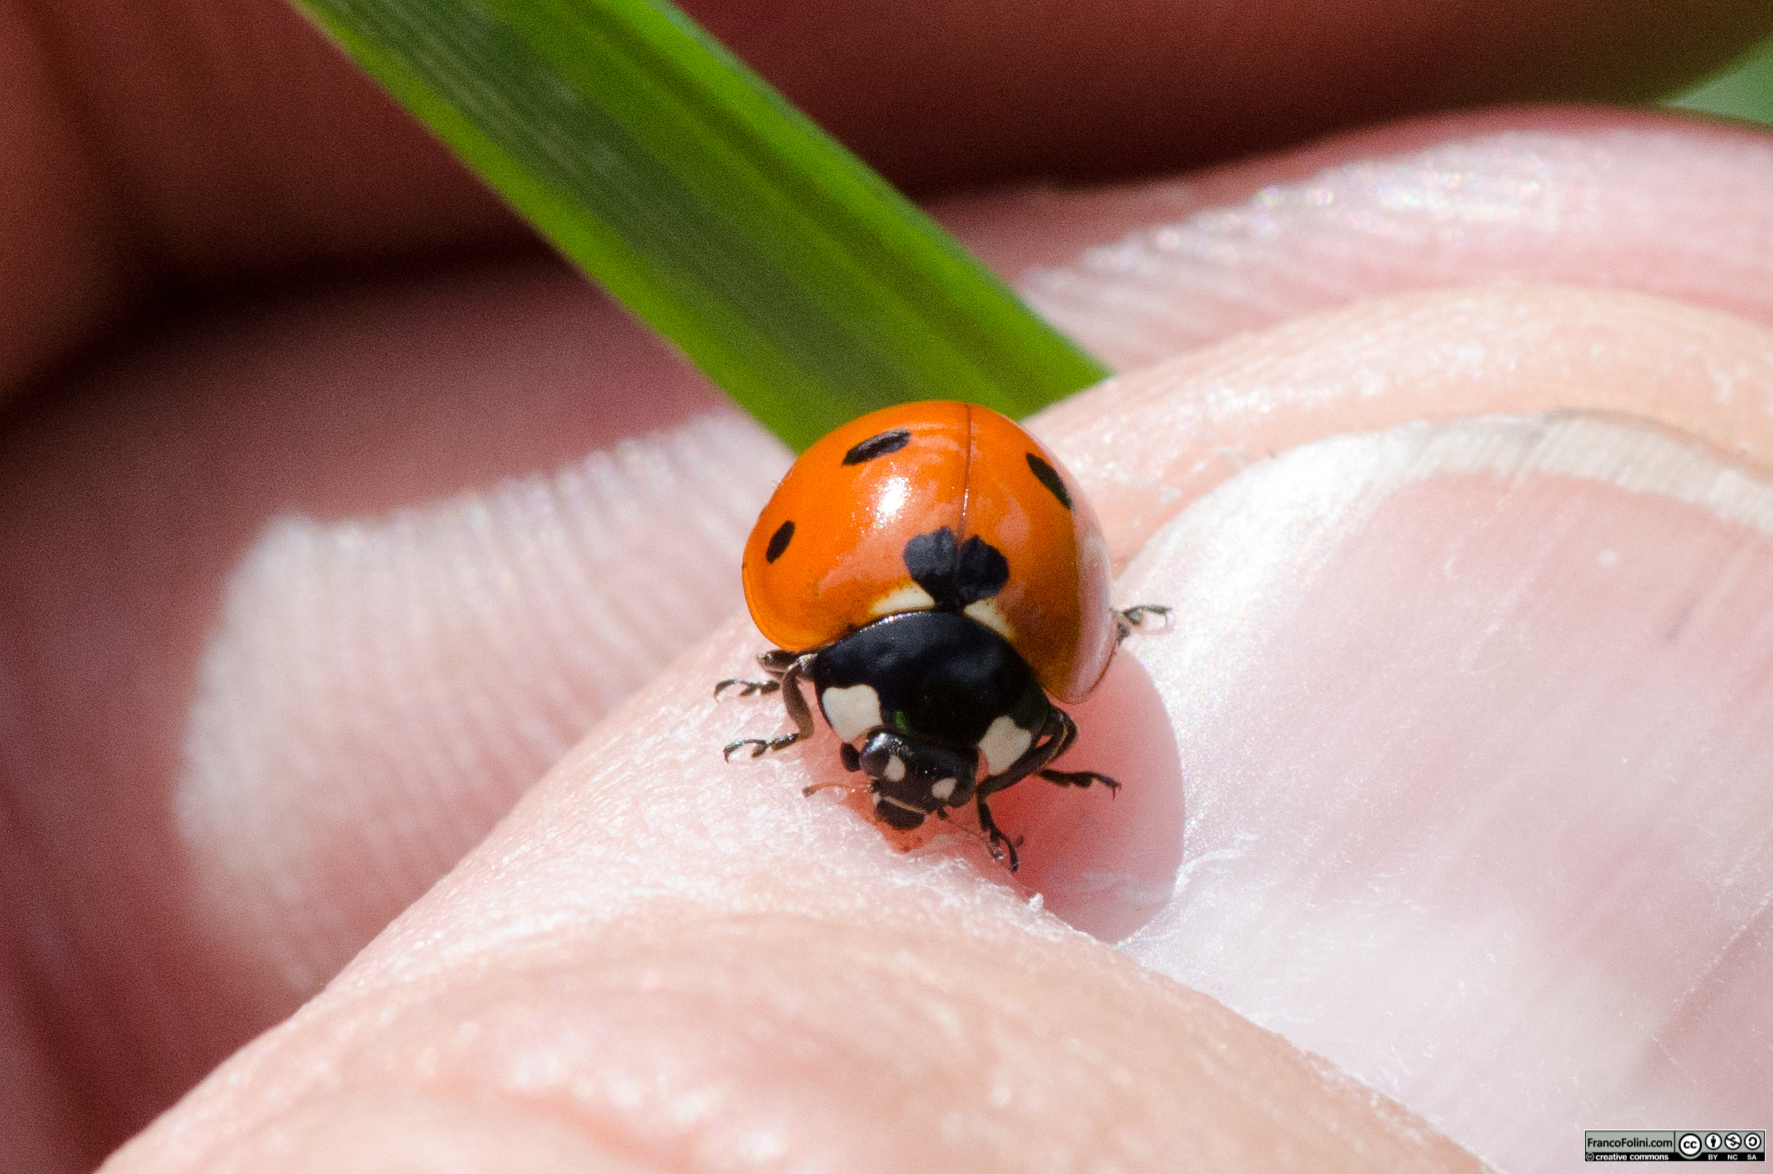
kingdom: Animalia
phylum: Arthropoda
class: Insecta
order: Coleoptera
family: Coccinellidae
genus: Coccinella
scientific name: Coccinella septempunctata
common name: Sevenspotted lady beetle
